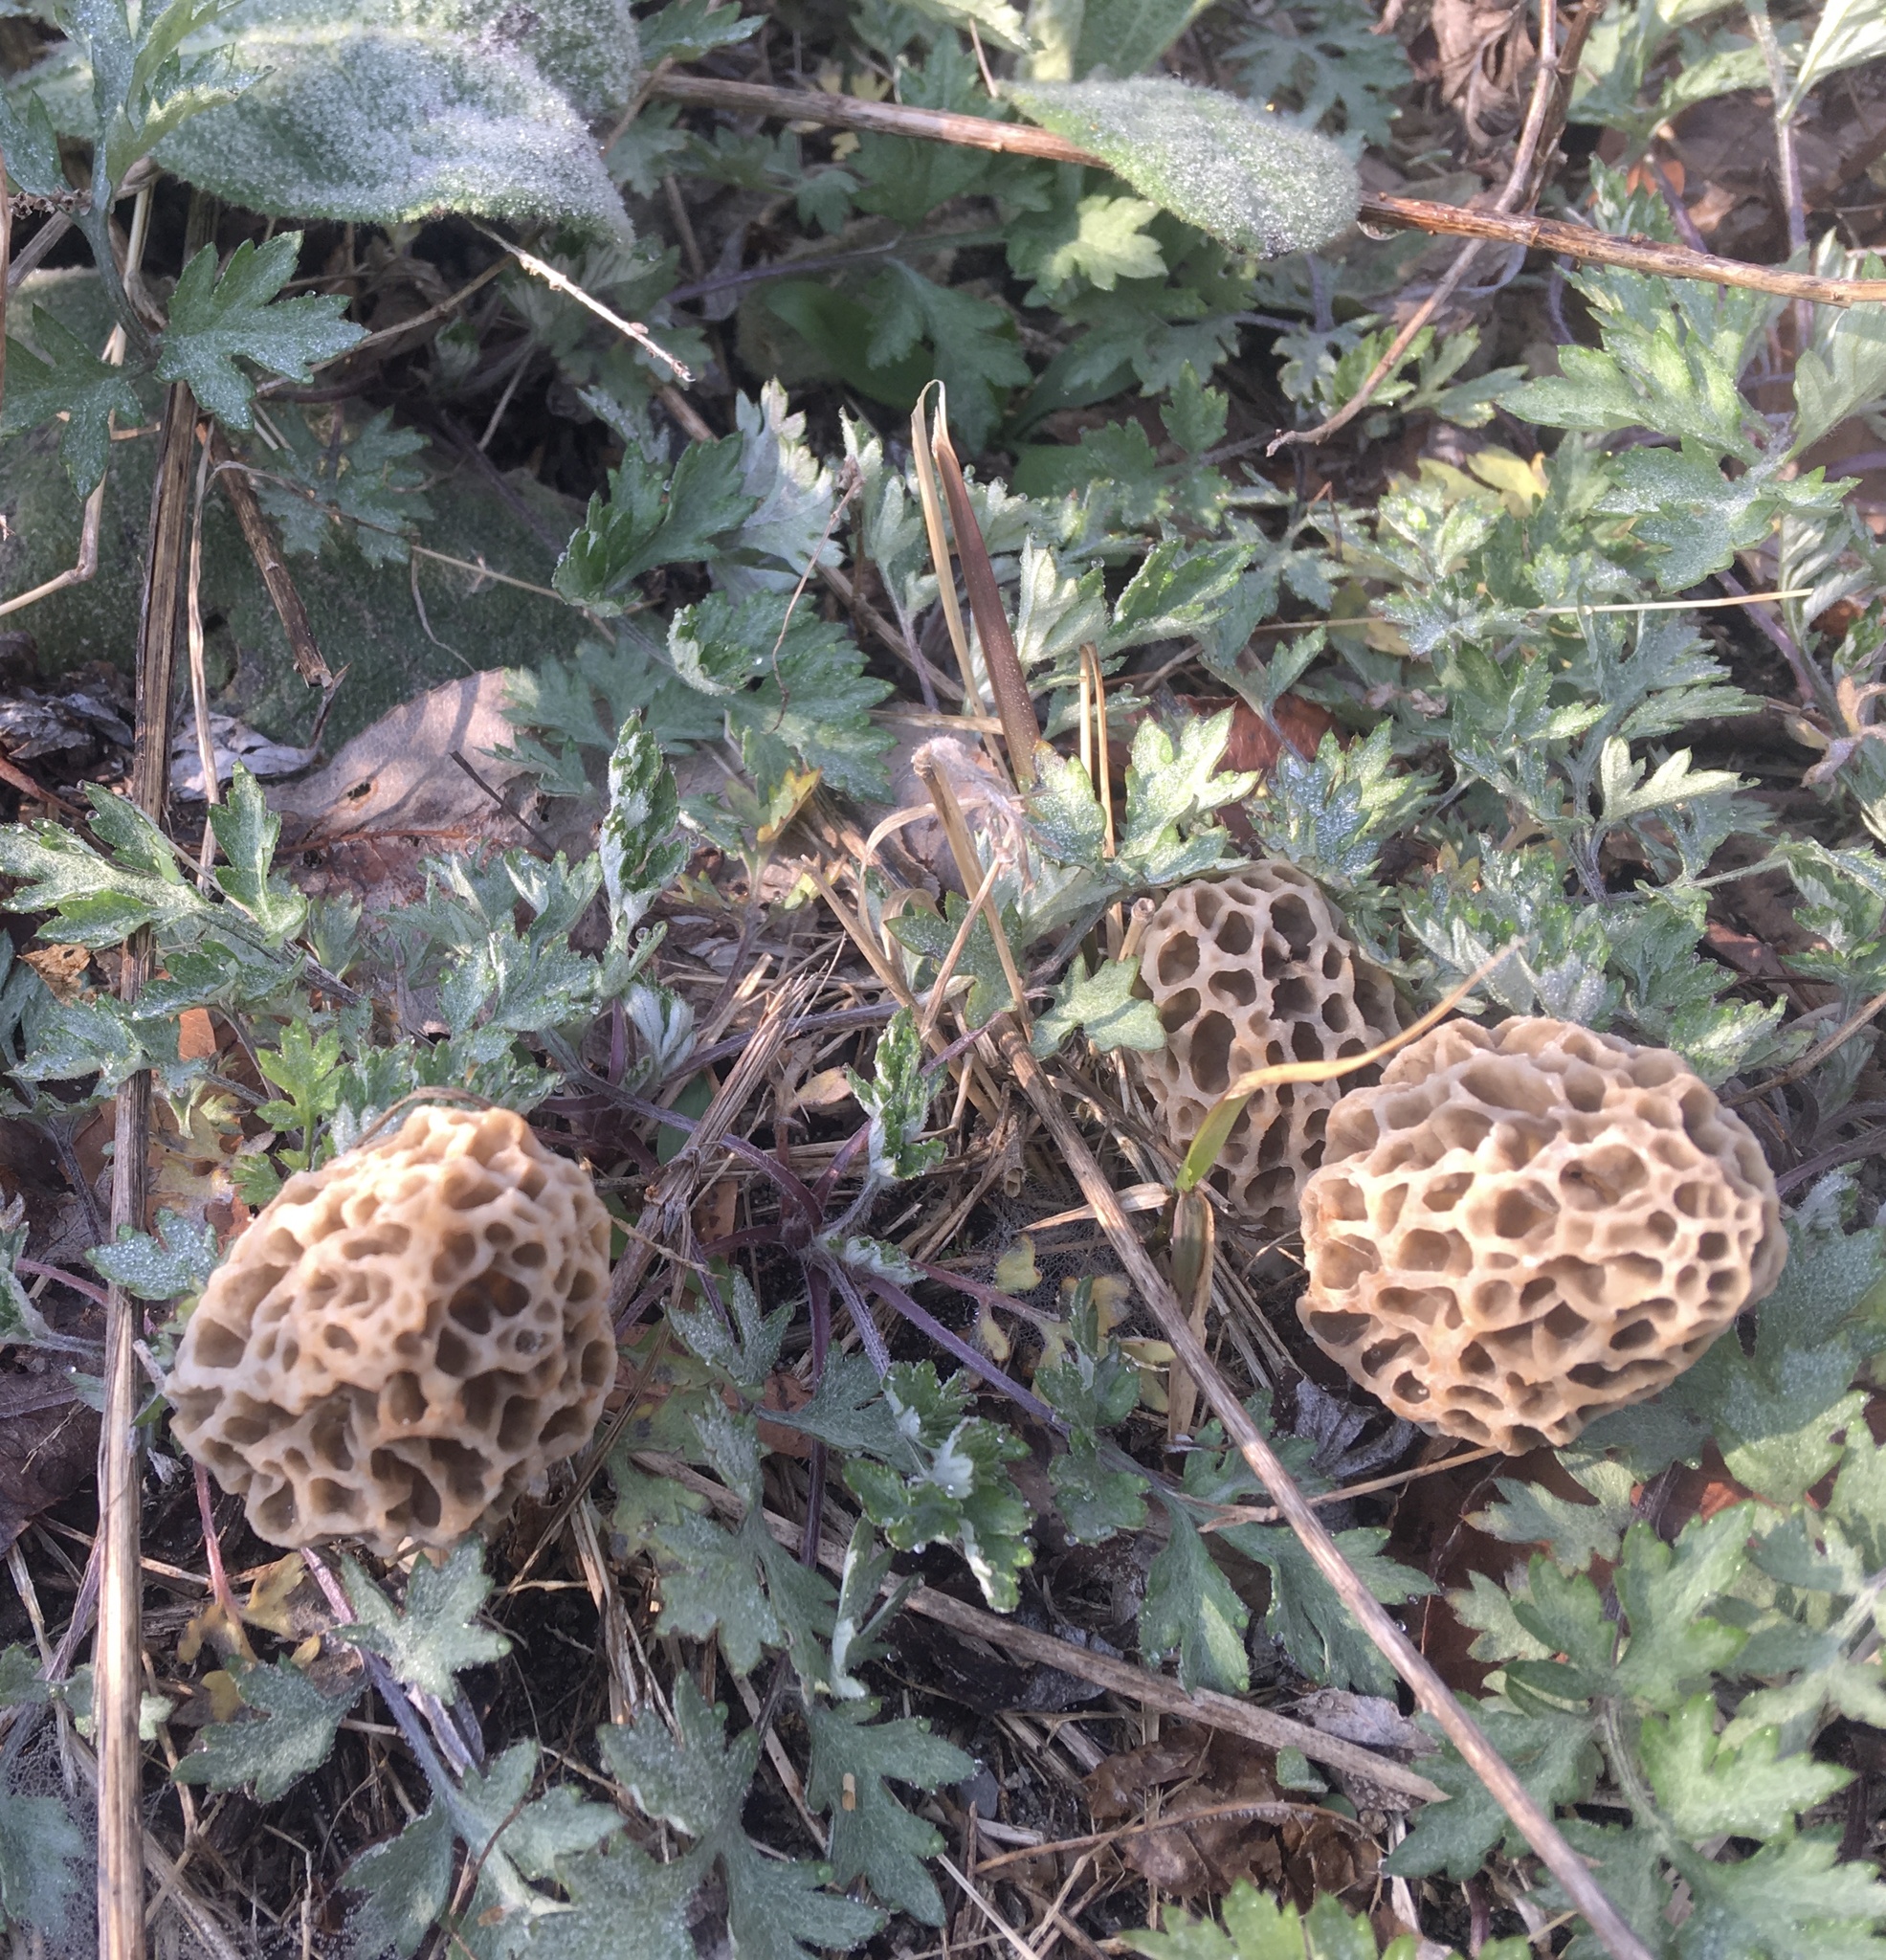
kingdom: Fungi
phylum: Ascomycota
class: Pezizomycetes
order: Pezizales
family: Morchellaceae
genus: Morchella
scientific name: Morchella americana
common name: White morel
